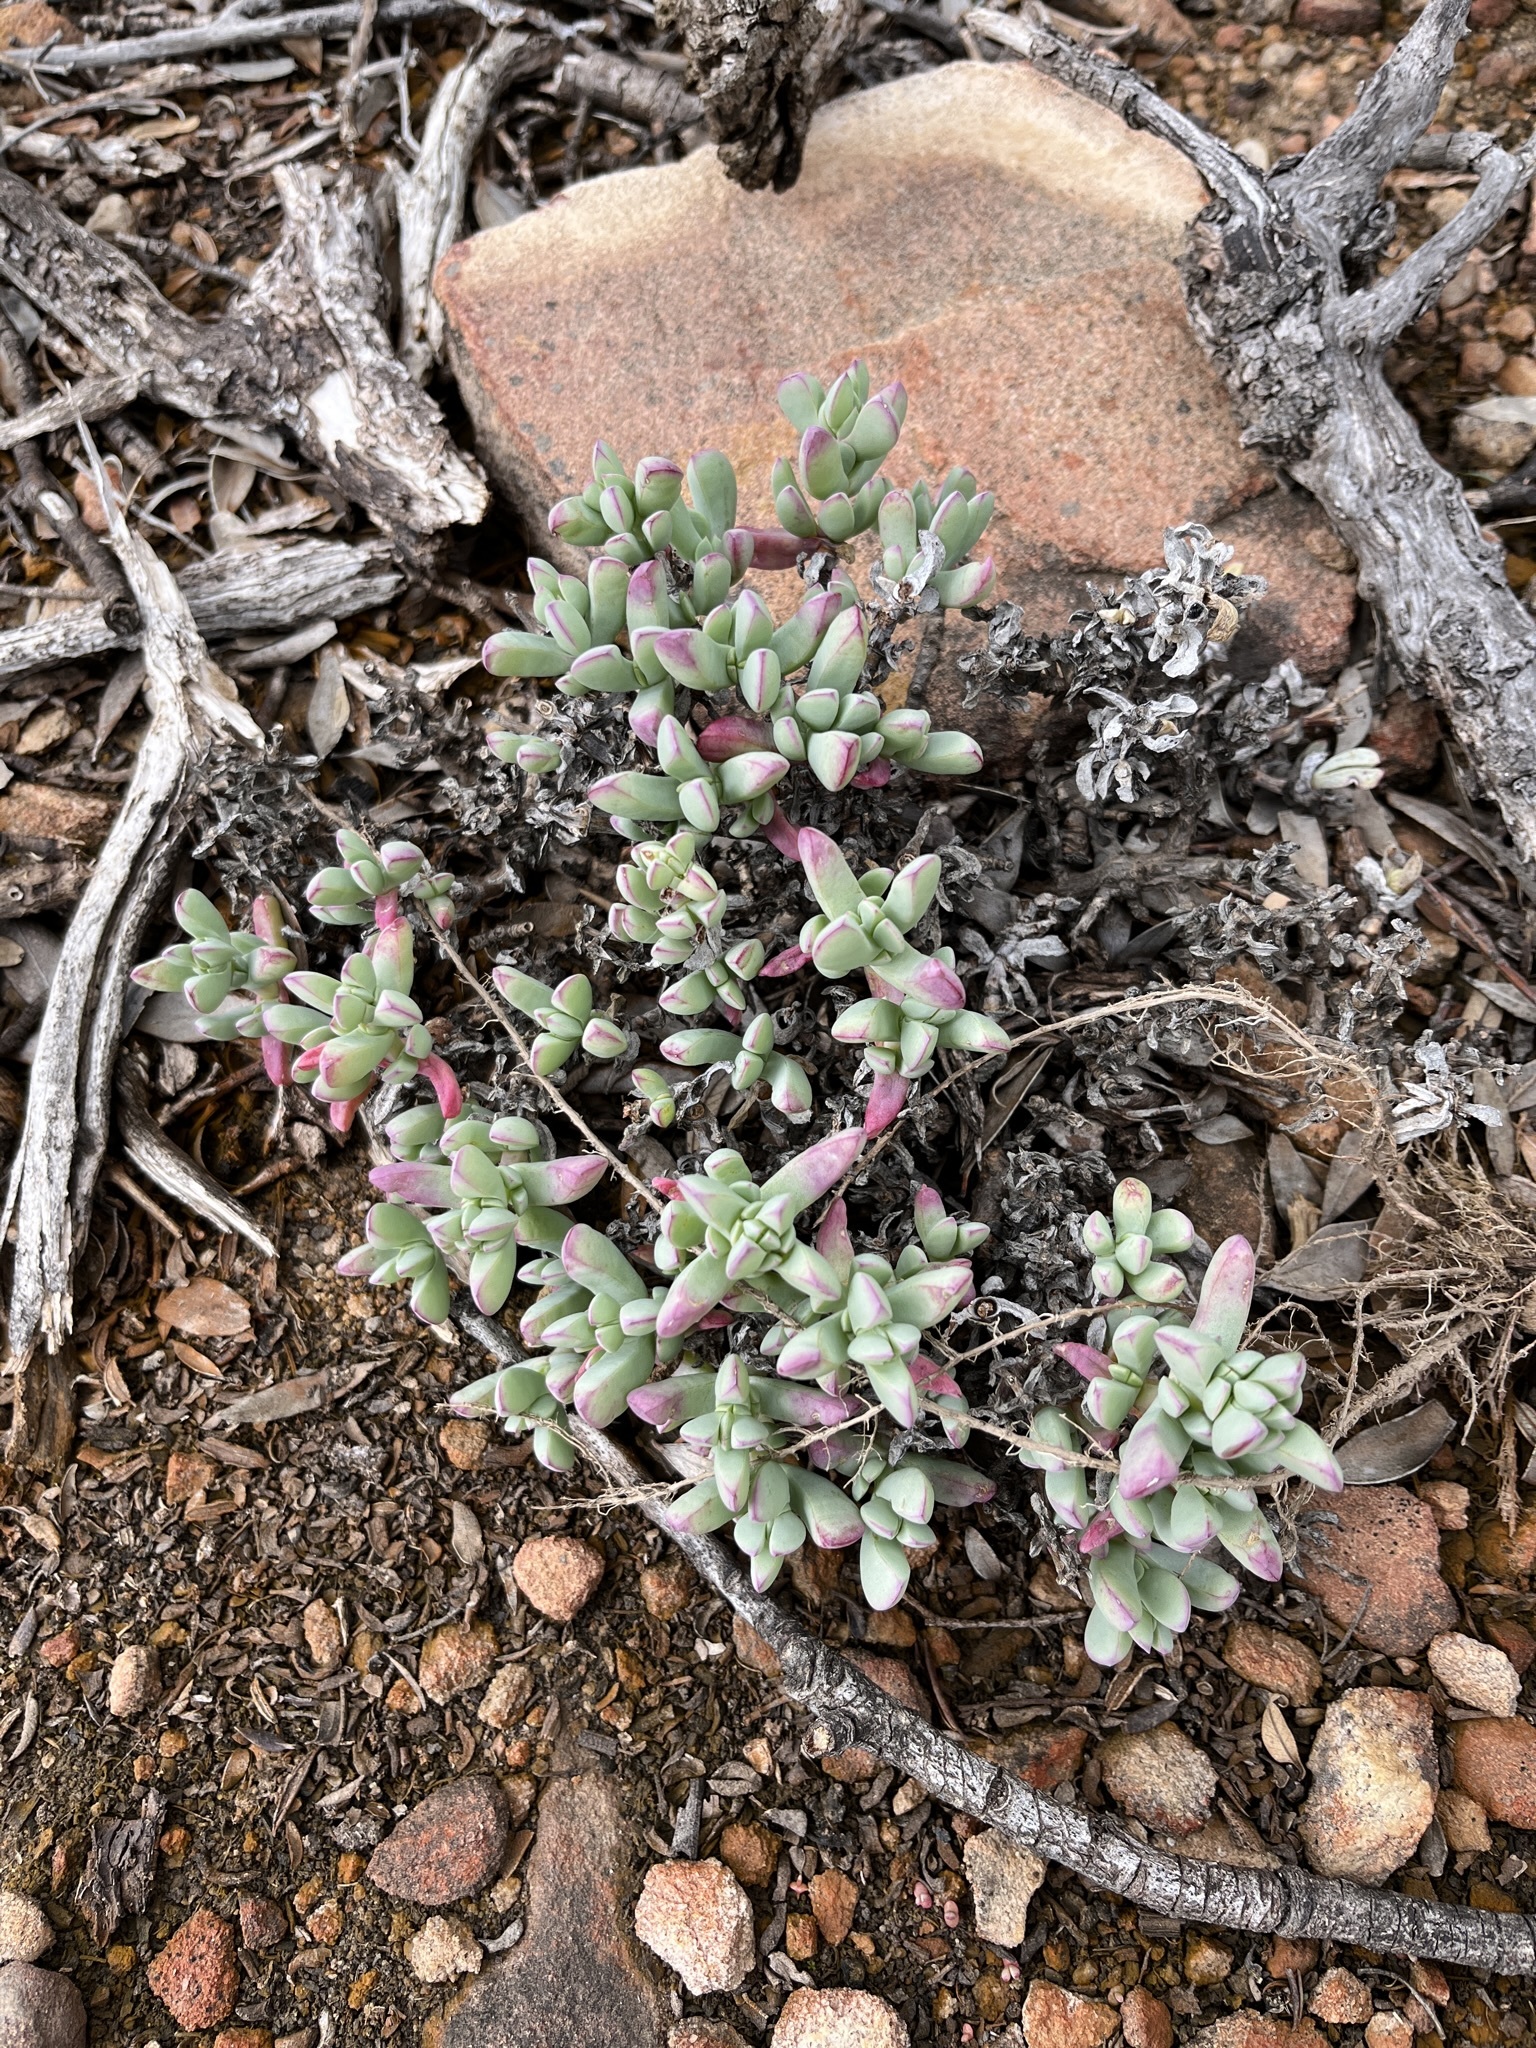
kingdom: Plantae
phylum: Tracheophyta
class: Magnoliopsida
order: Caryophyllales
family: Aizoaceae
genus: Oscularia
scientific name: Oscularia lunata
